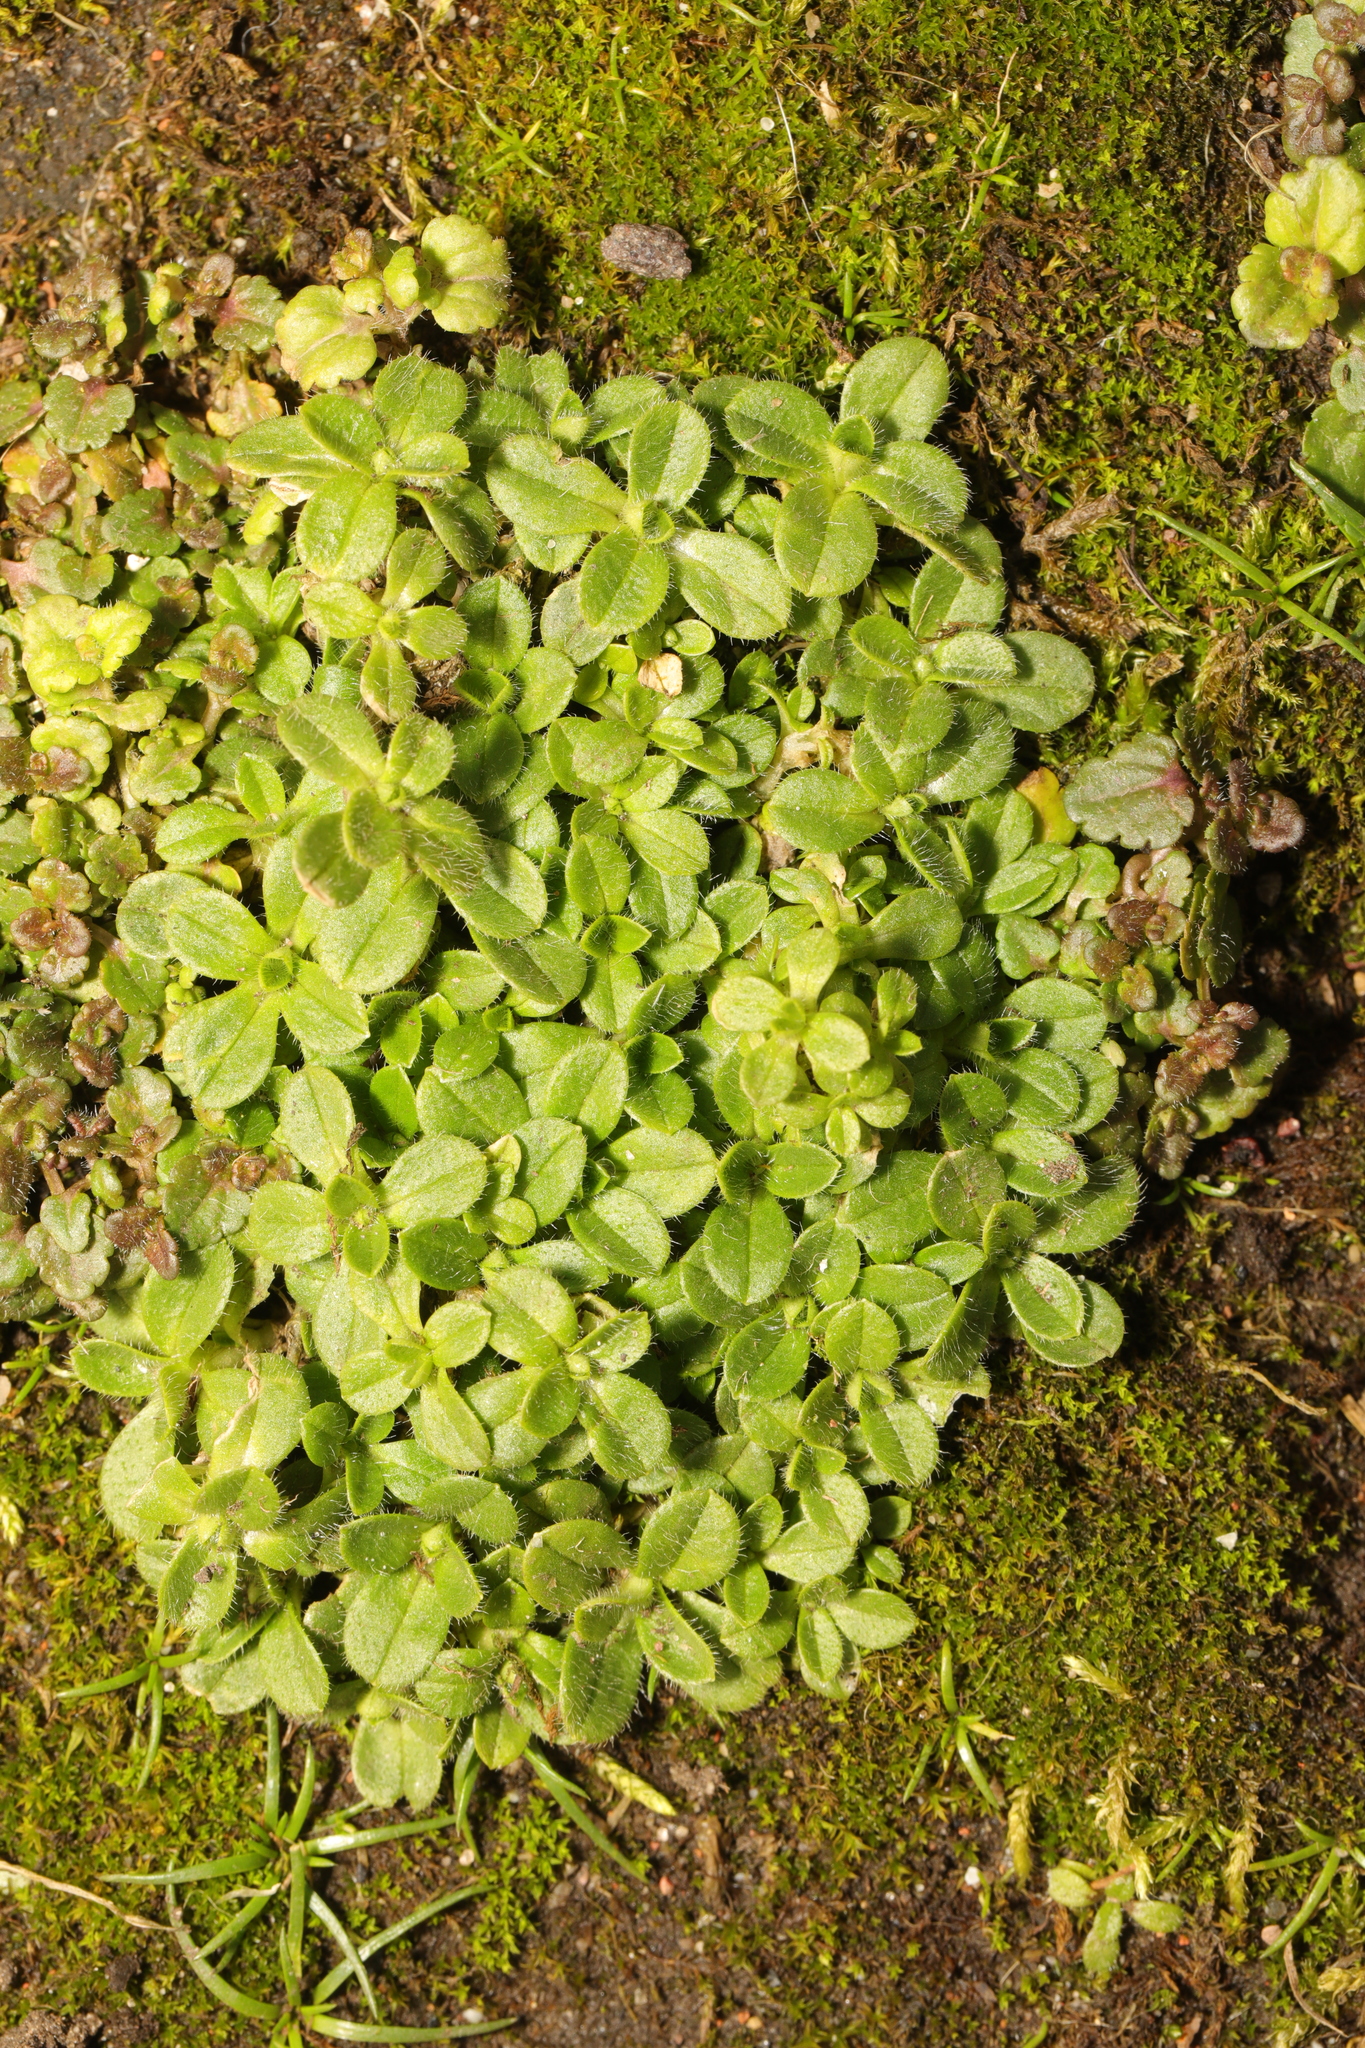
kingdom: Plantae
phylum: Tracheophyta
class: Magnoliopsida
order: Caryophyllales
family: Caryophyllaceae
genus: Cerastium
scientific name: Cerastium glomeratum
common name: Sticky chickweed
